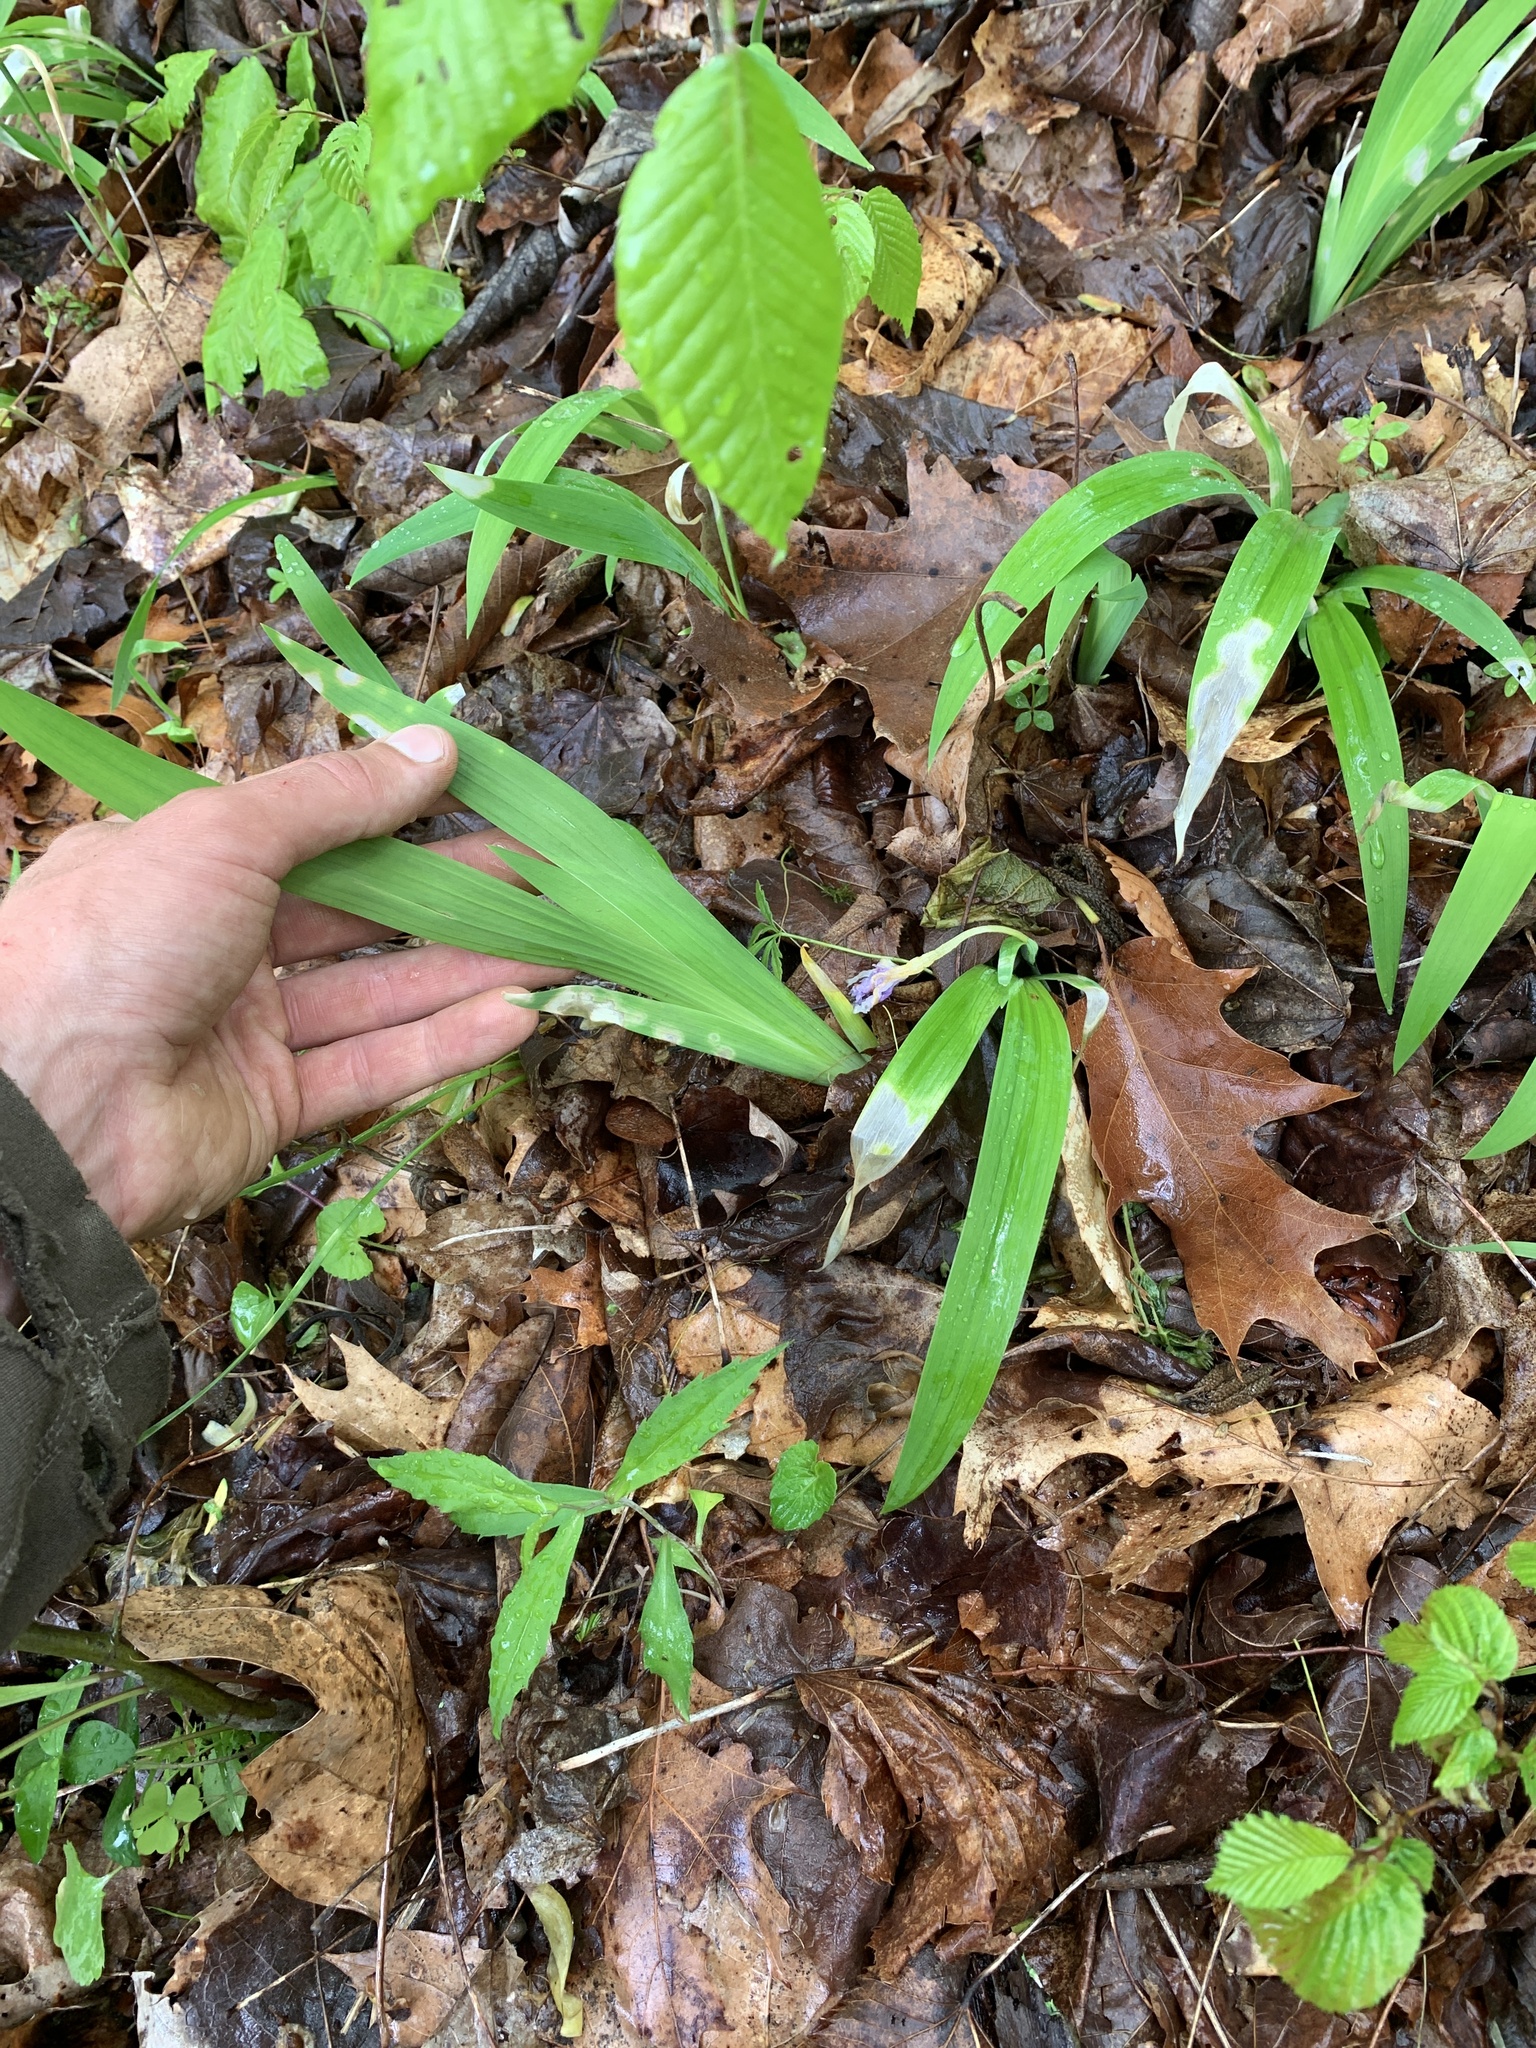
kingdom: Plantae
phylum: Tracheophyta
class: Liliopsida
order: Asparagales
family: Iridaceae
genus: Iris
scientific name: Iris cristata
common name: Crested iris
